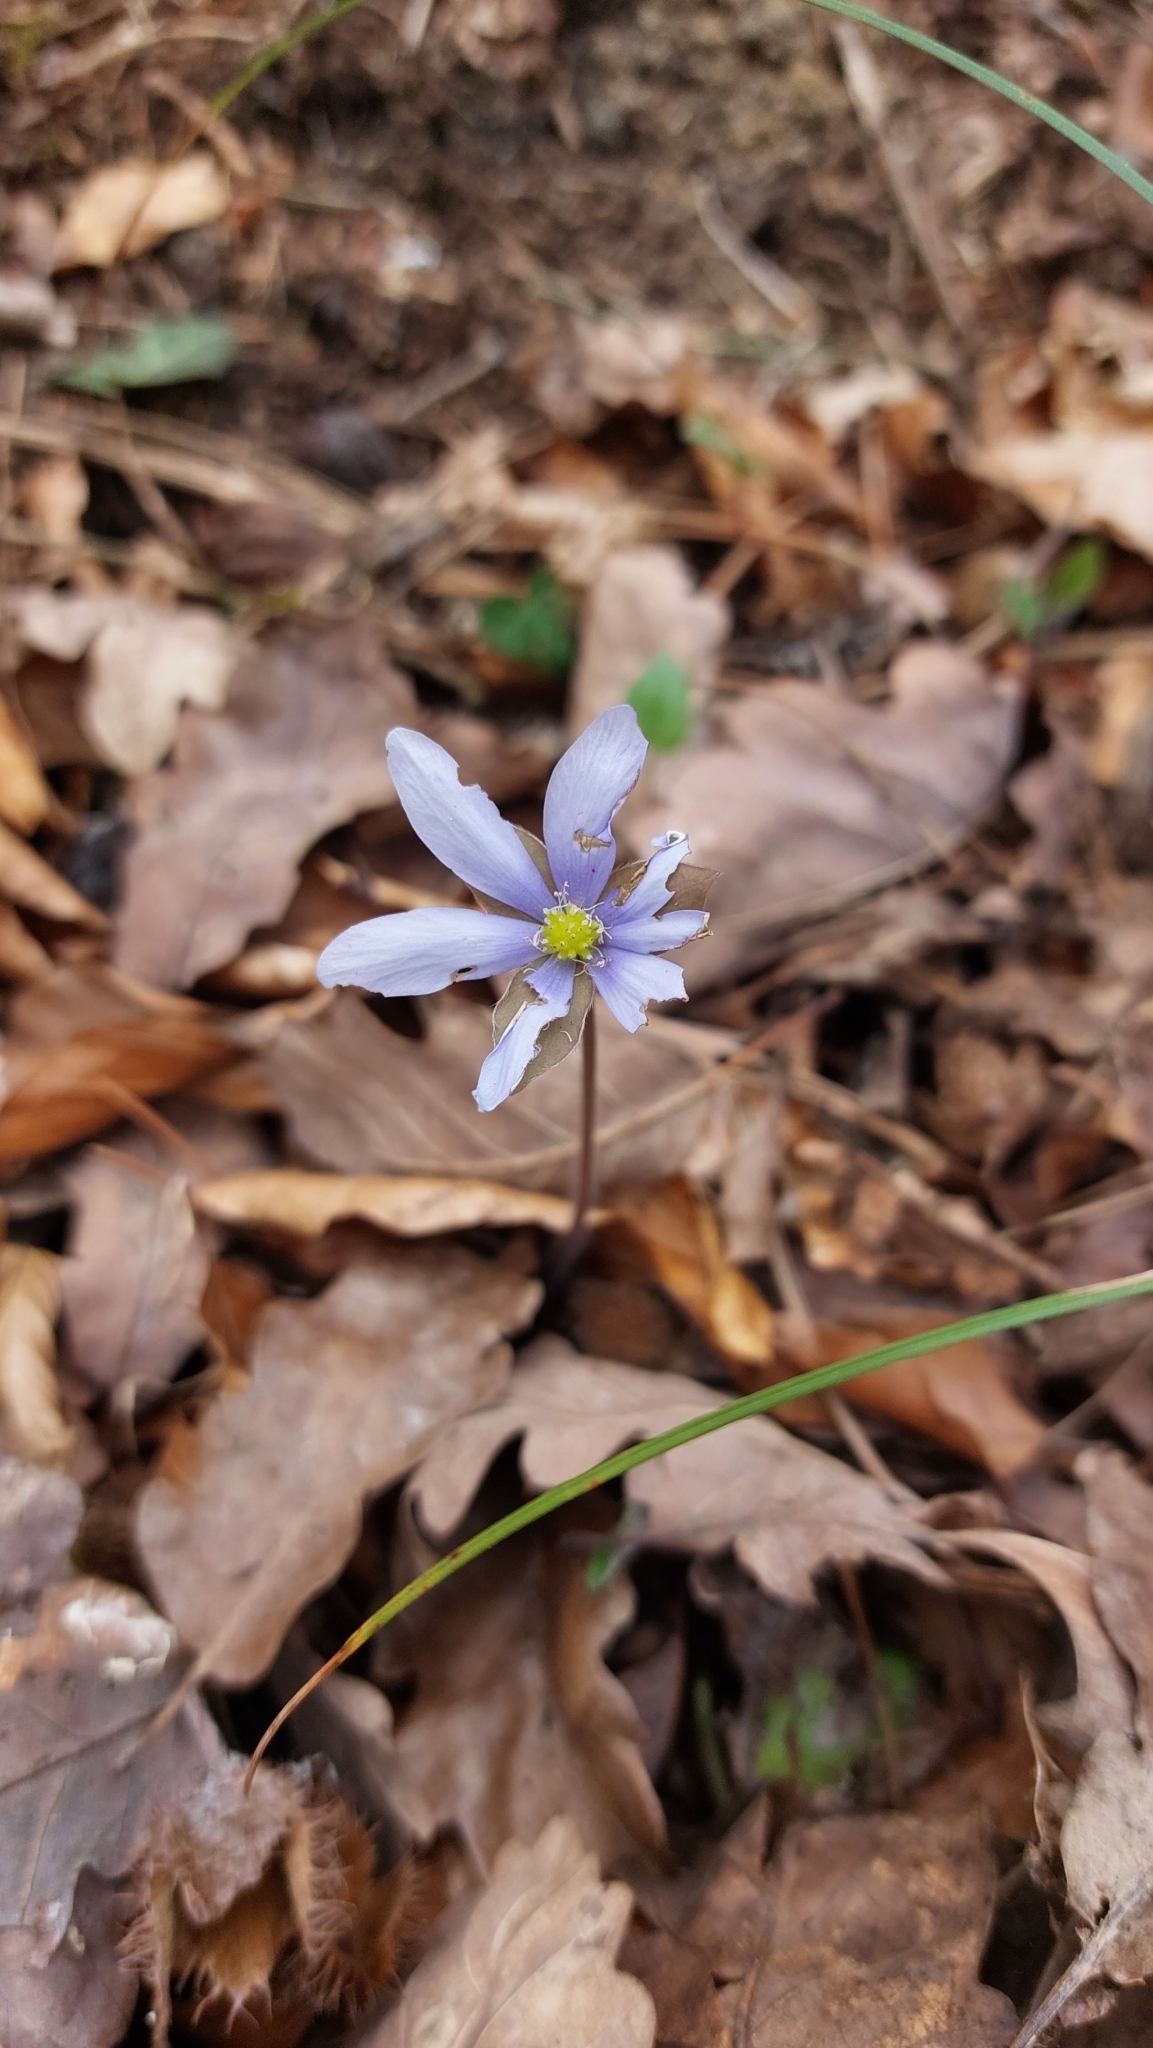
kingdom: Plantae
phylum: Tracheophyta
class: Magnoliopsida
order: Ranunculales
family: Ranunculaceae
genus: Hepatica
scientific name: Hepatica nobilis
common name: Liverleaf
